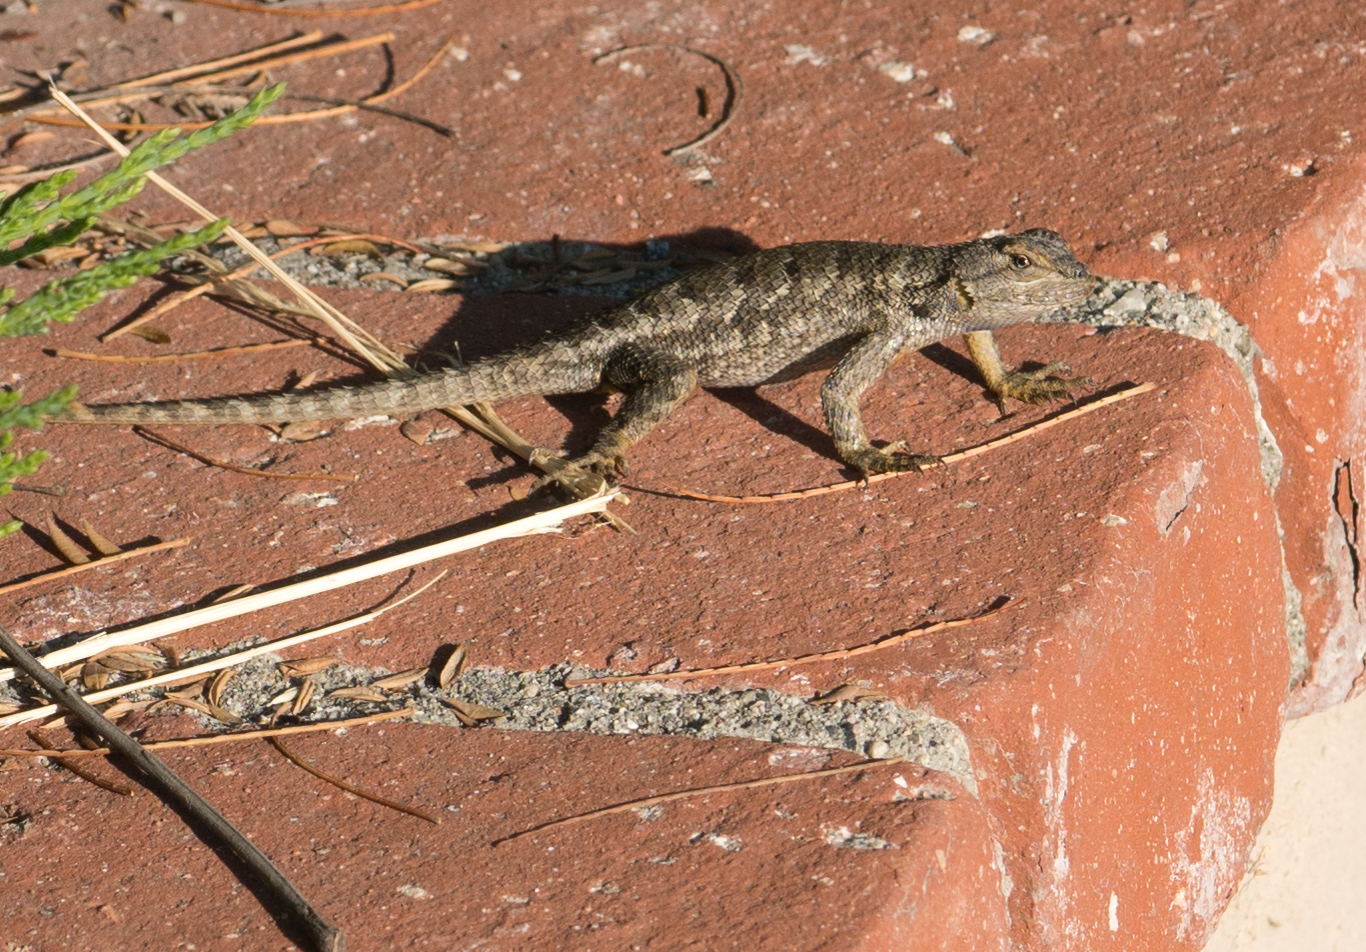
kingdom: Animalia
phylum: Chordata
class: Squamata
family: Phrynosomatidae
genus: Sceloporus
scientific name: Sceloporus occidentalis
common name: Western fence lizard
